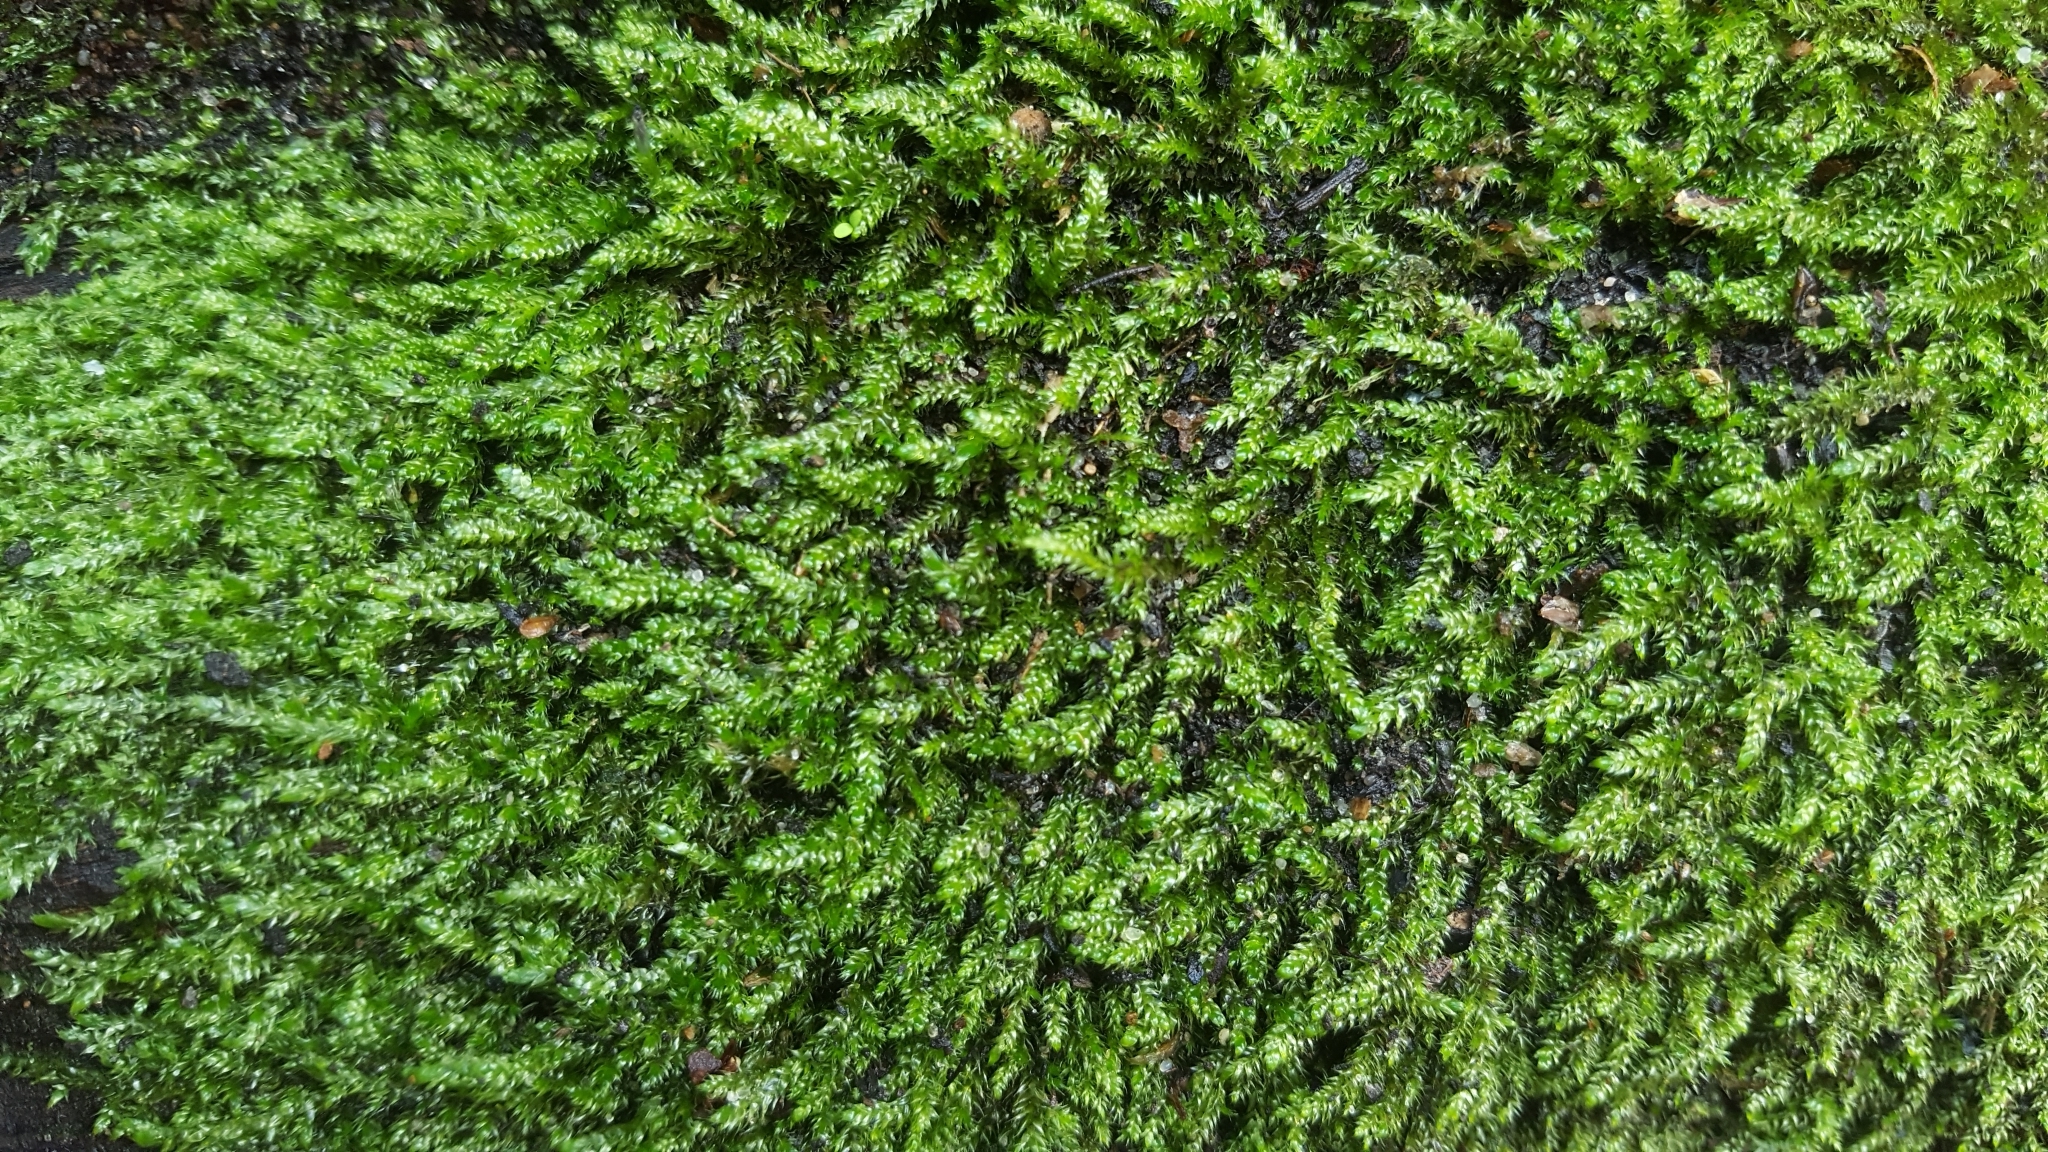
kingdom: Plantae
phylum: Bryophyta
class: Bryopsida
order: Hypnales
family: Hypnaceae
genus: Hypnum
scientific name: Hypnum cupressiforme
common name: Cypress-leaved plait-moss
